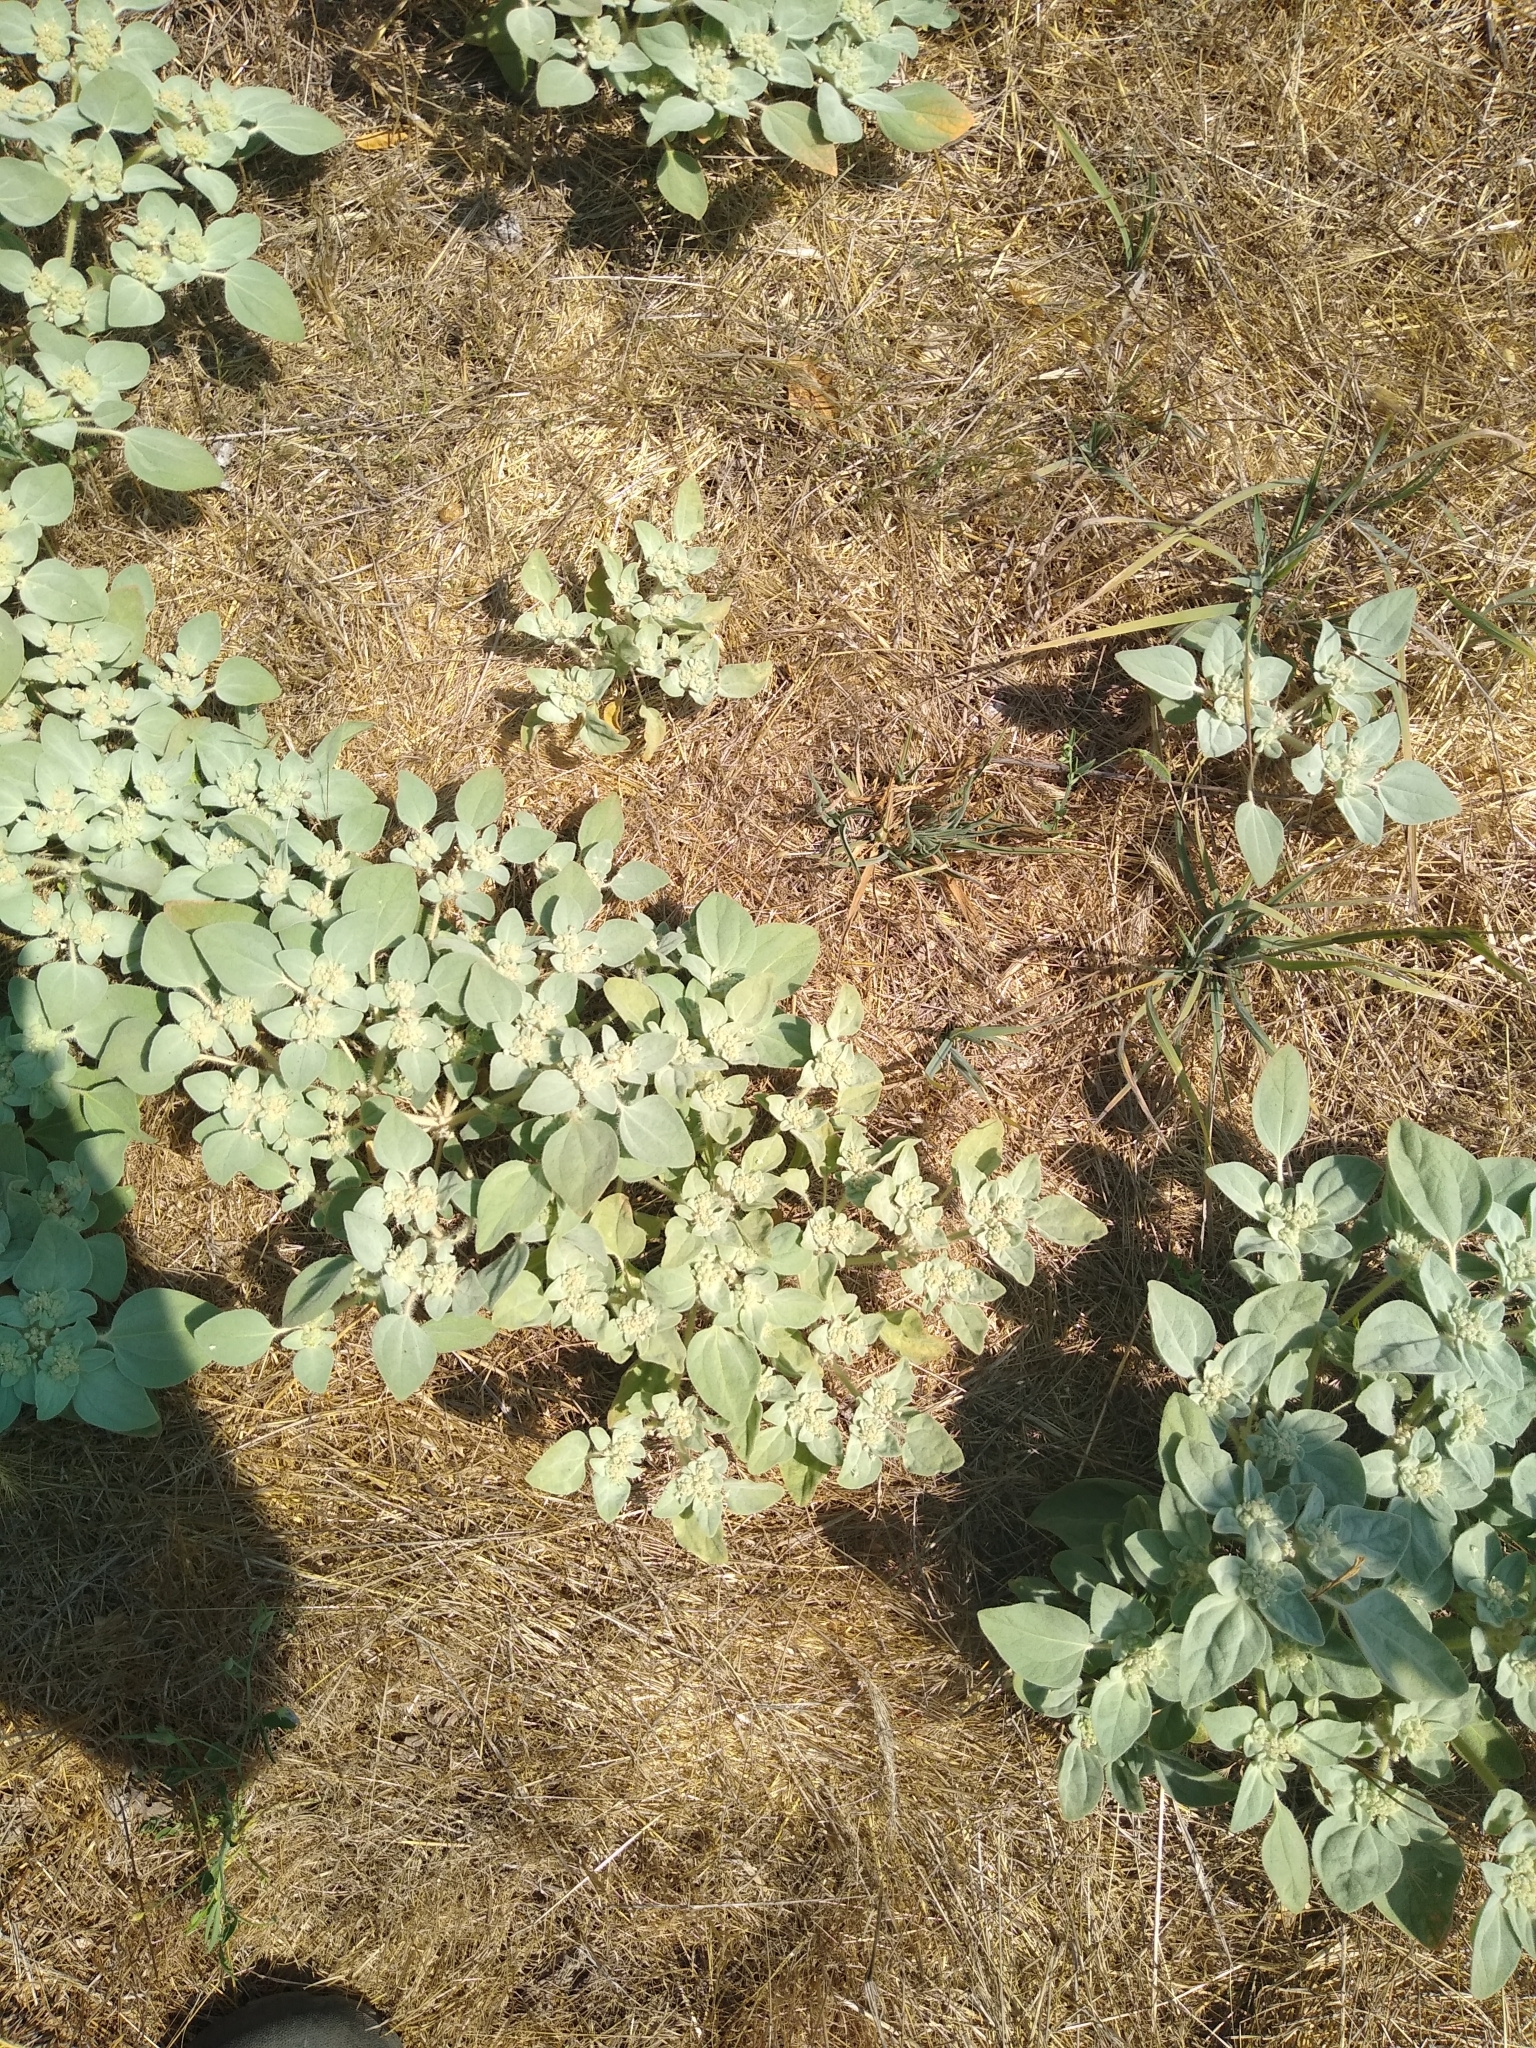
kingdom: Plantae
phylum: Tracheophyta
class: Magnoliopsida
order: Malpighiales
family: Euphorbiaceae
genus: Croton
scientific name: Croton setiger
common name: Dove weed
